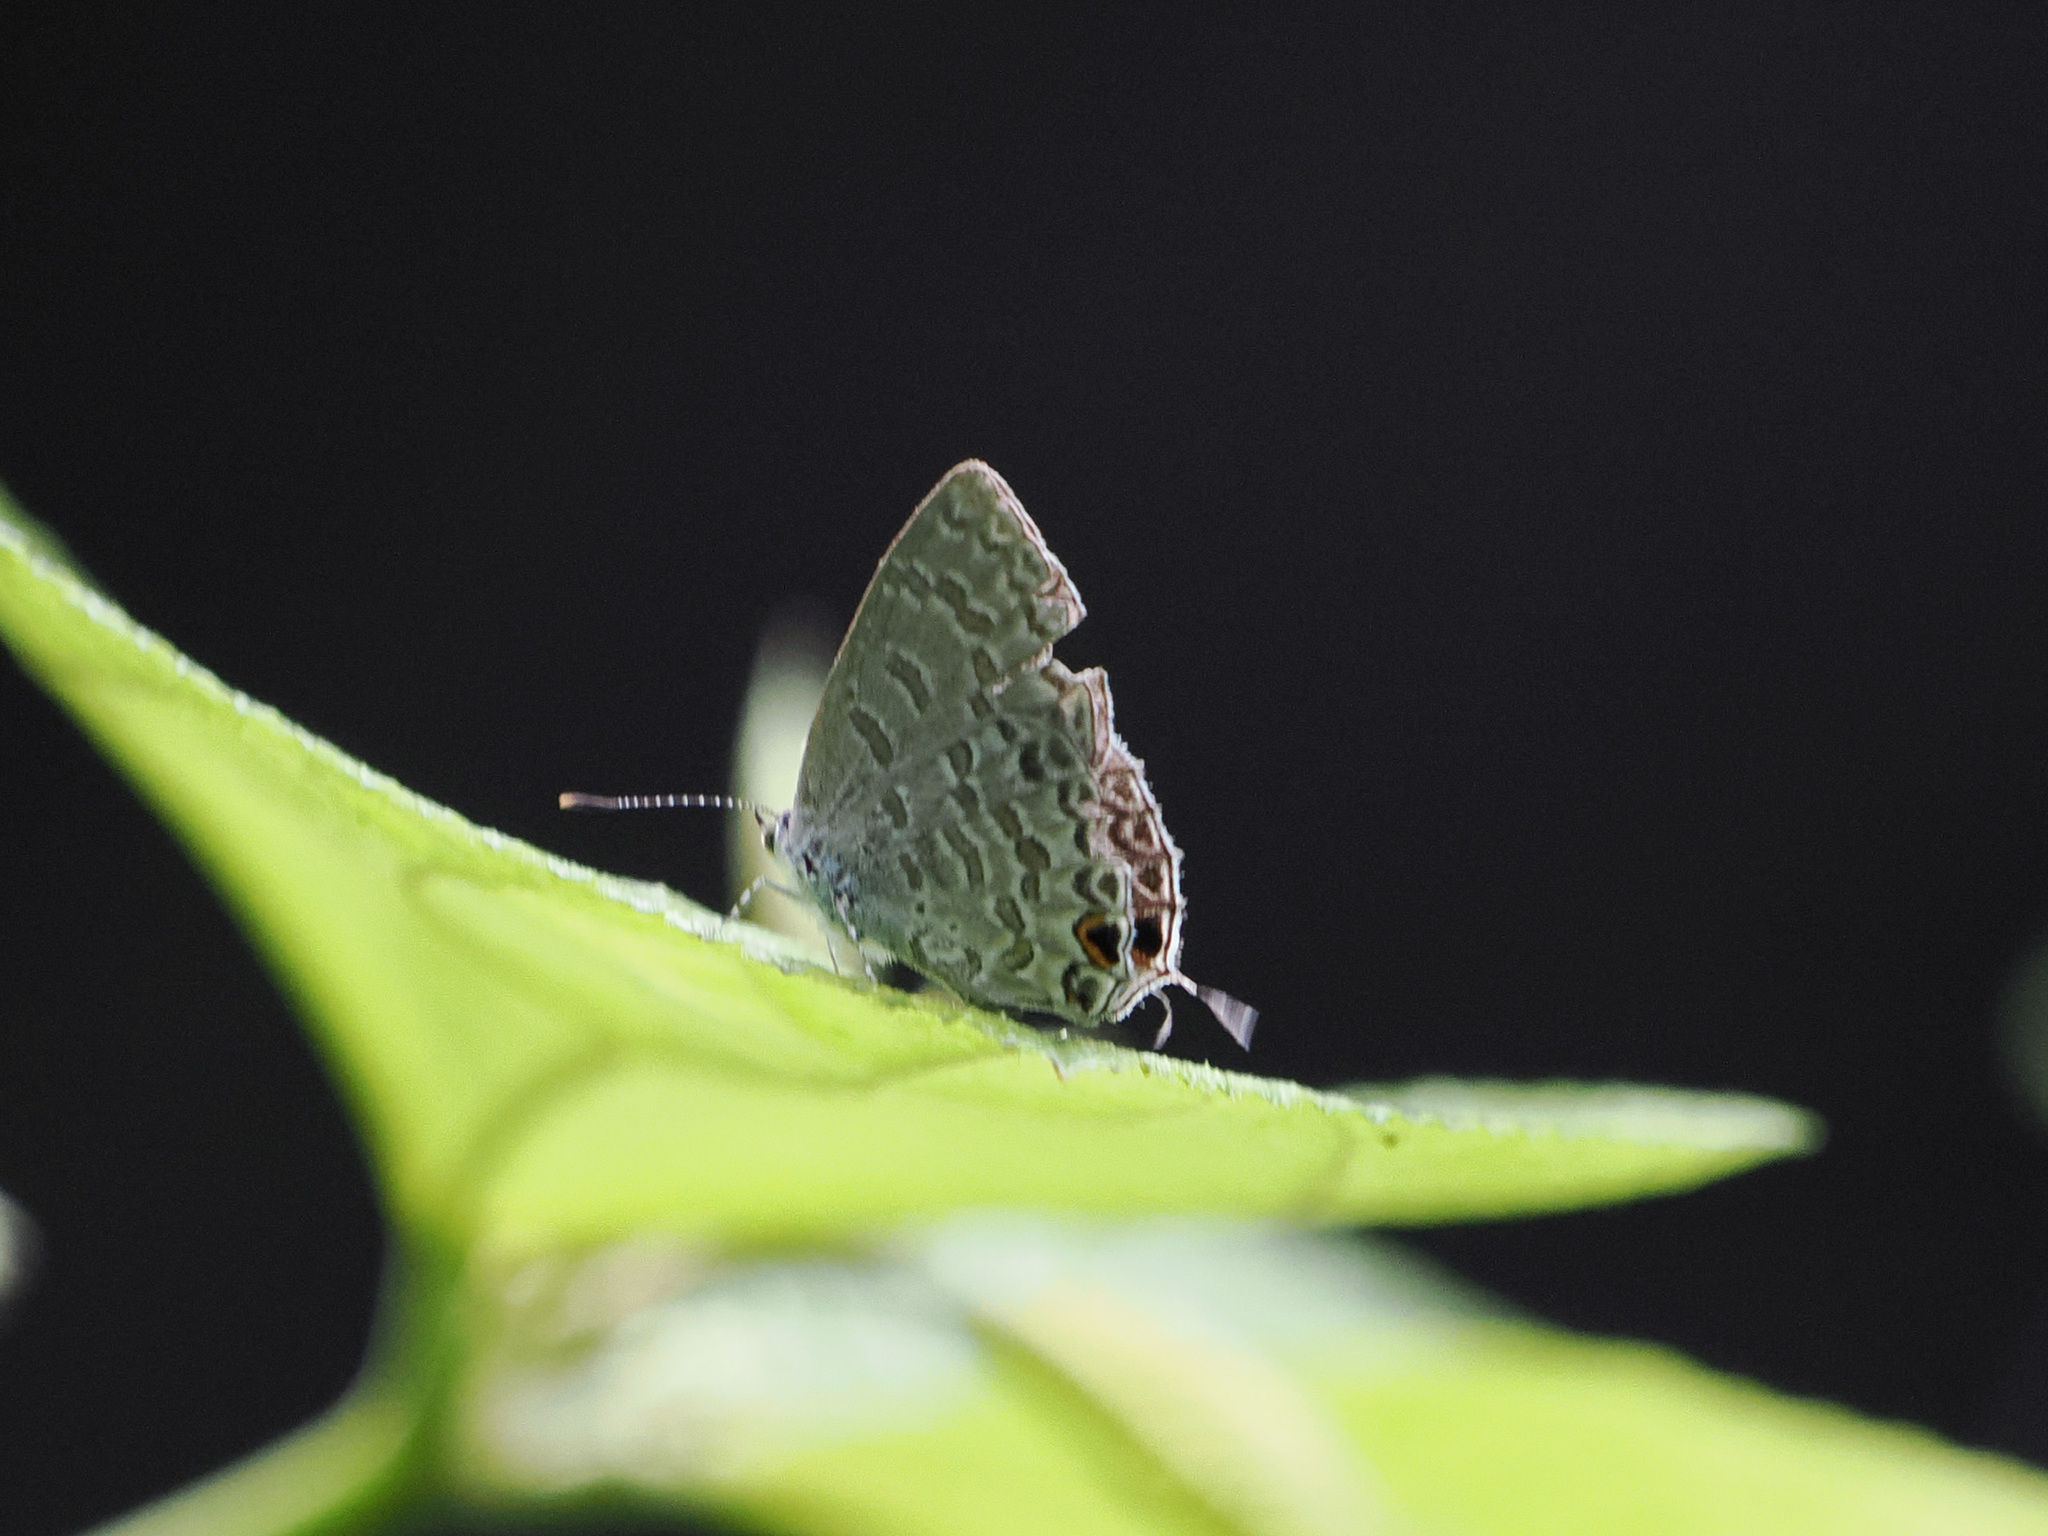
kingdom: Animalia
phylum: Arthropoda
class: Insecta
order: Lepidoptera
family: Lycaenidae
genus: Catopyrops
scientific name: Catopyrops ancyra
